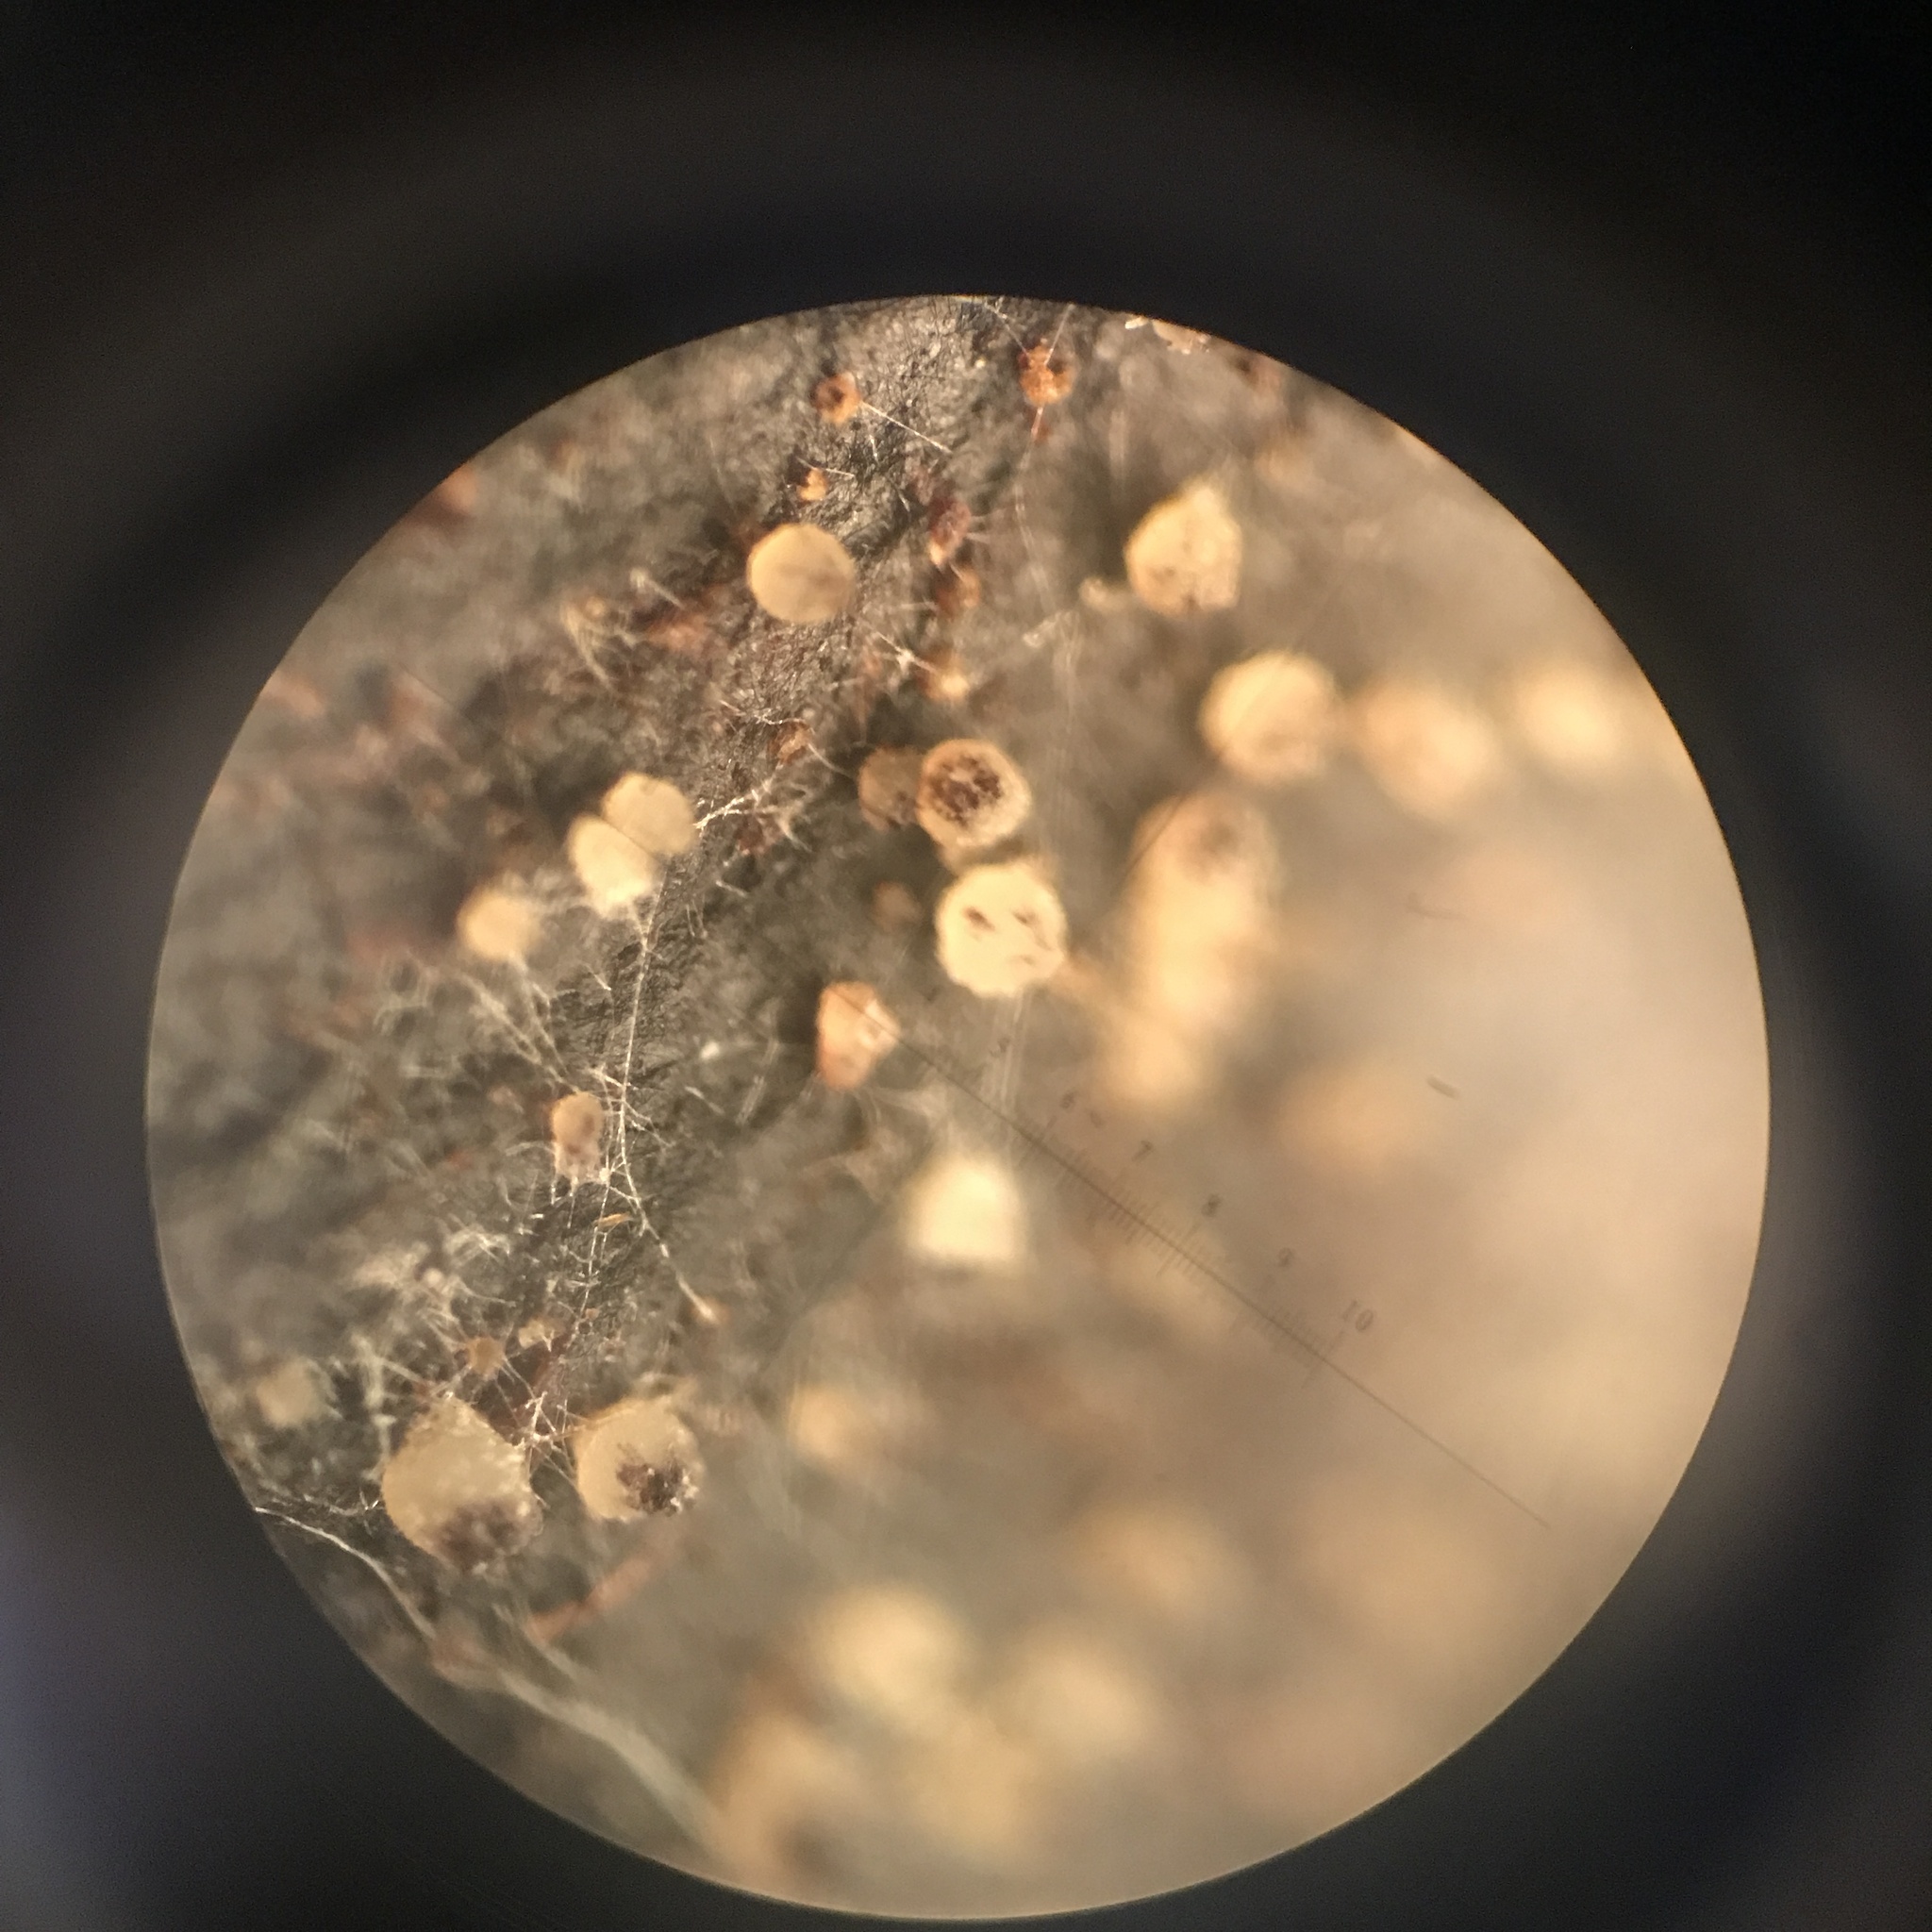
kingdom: Fungi
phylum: Ascomycota
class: Pezizomycetes
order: Pezizales
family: Ascobolaceae
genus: Ascobolus
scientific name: Ascobolus michaudii
